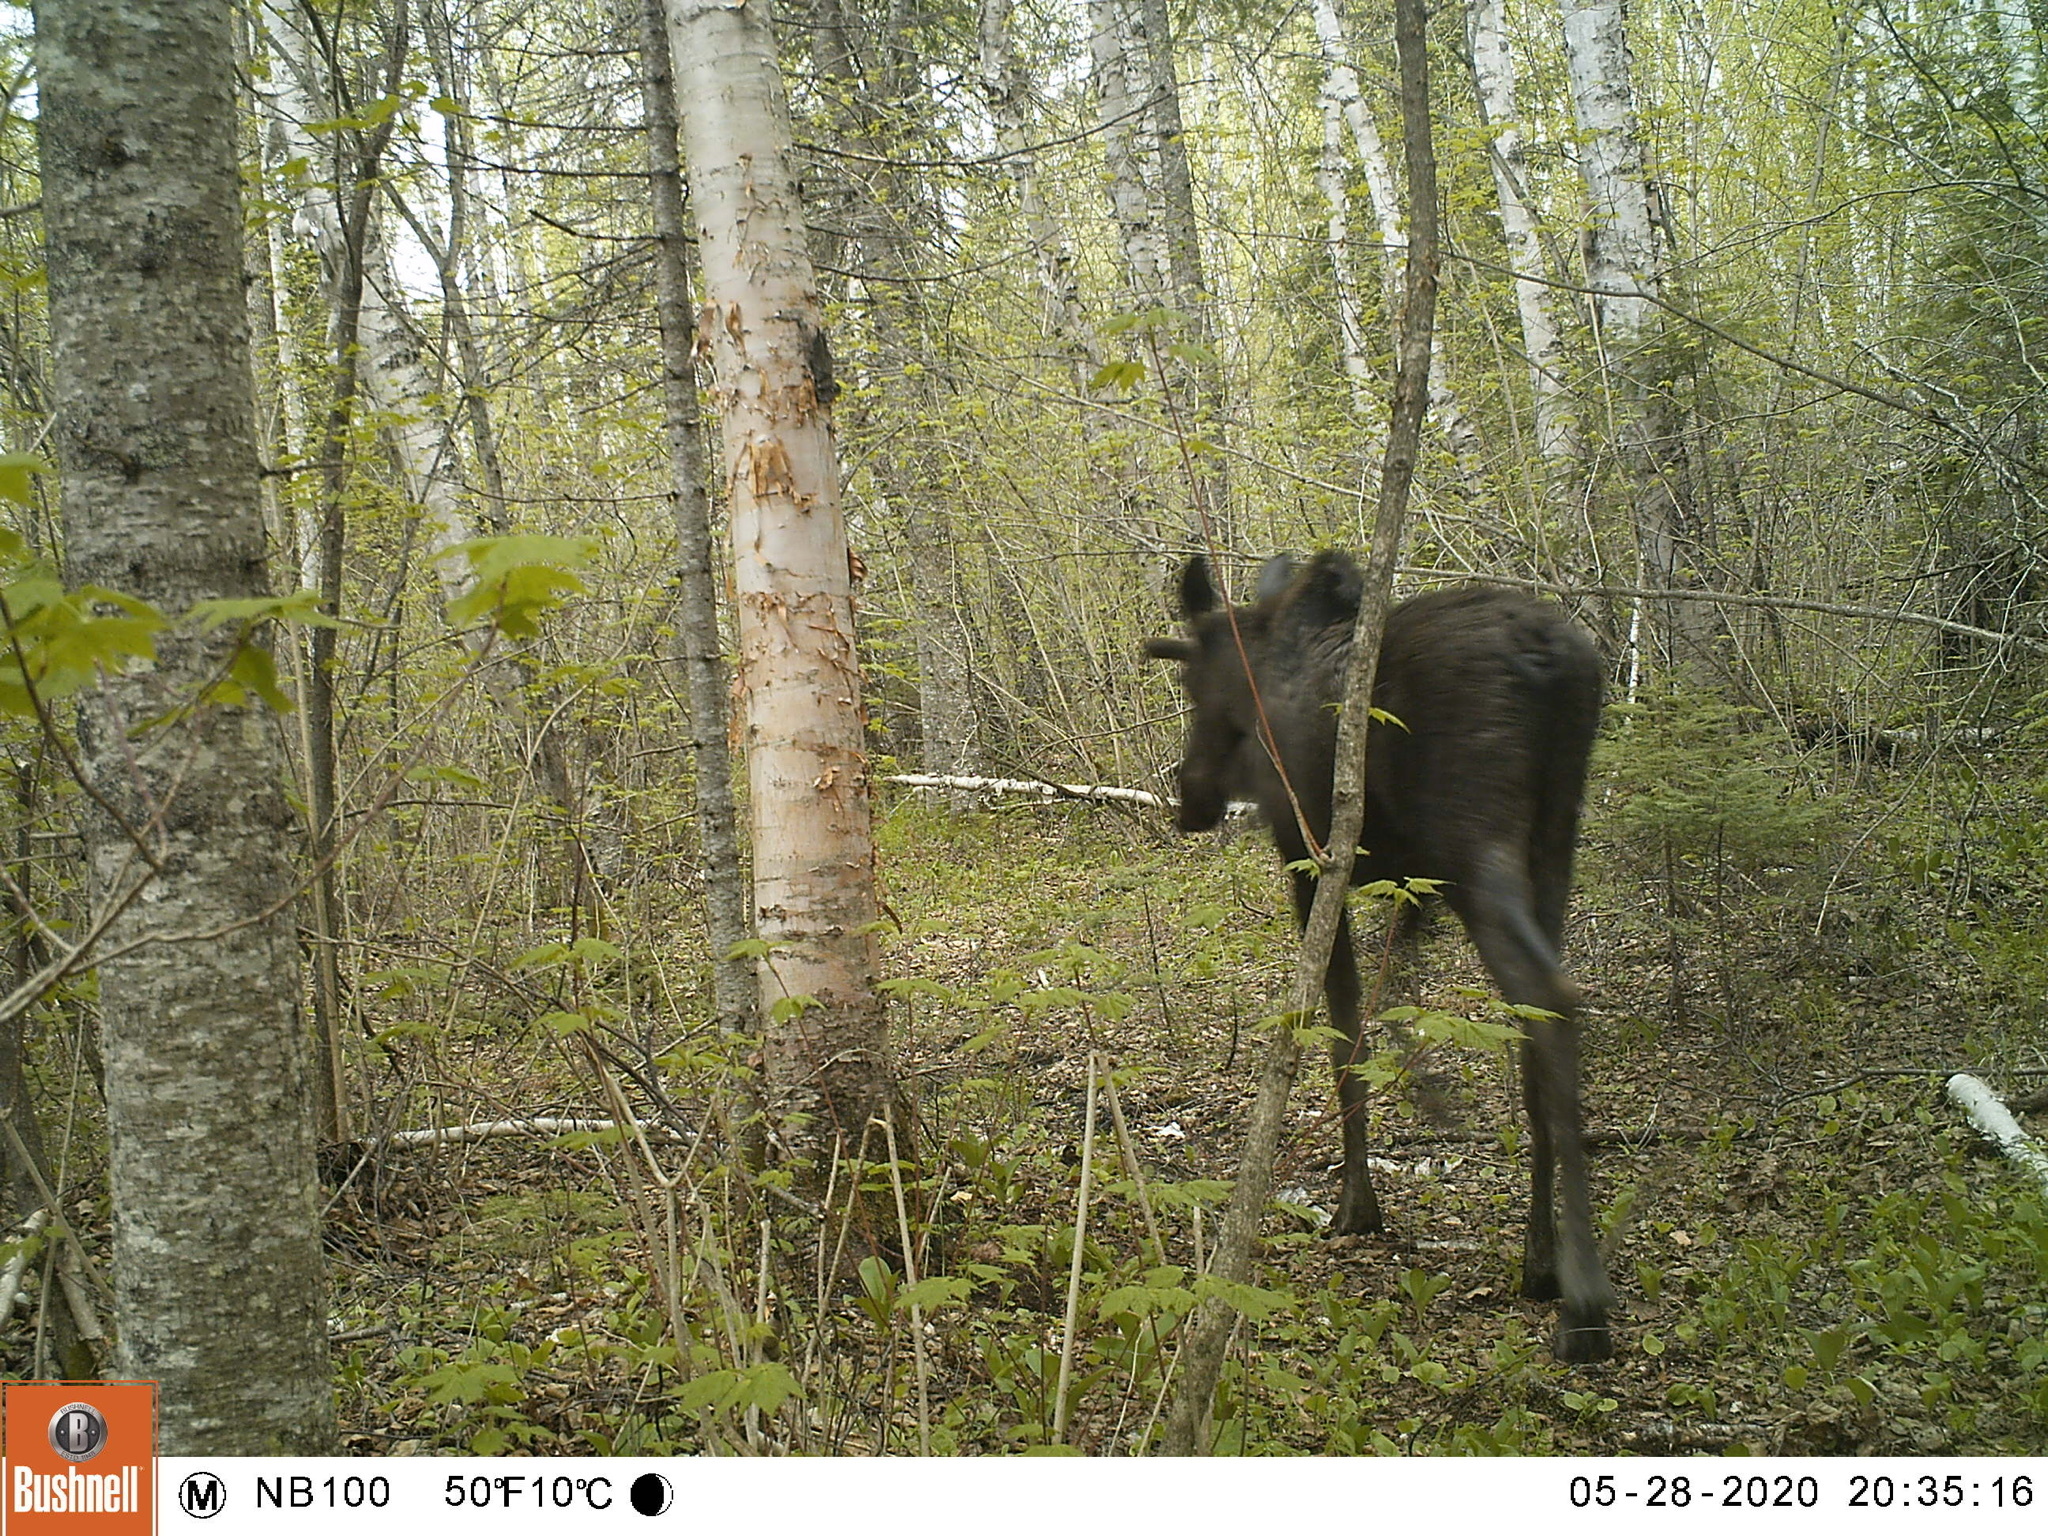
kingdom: Animalia
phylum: Chordata
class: Mammalia
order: Artiodactyla
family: Cervidae
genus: Alces
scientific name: Alces alces
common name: Moose
